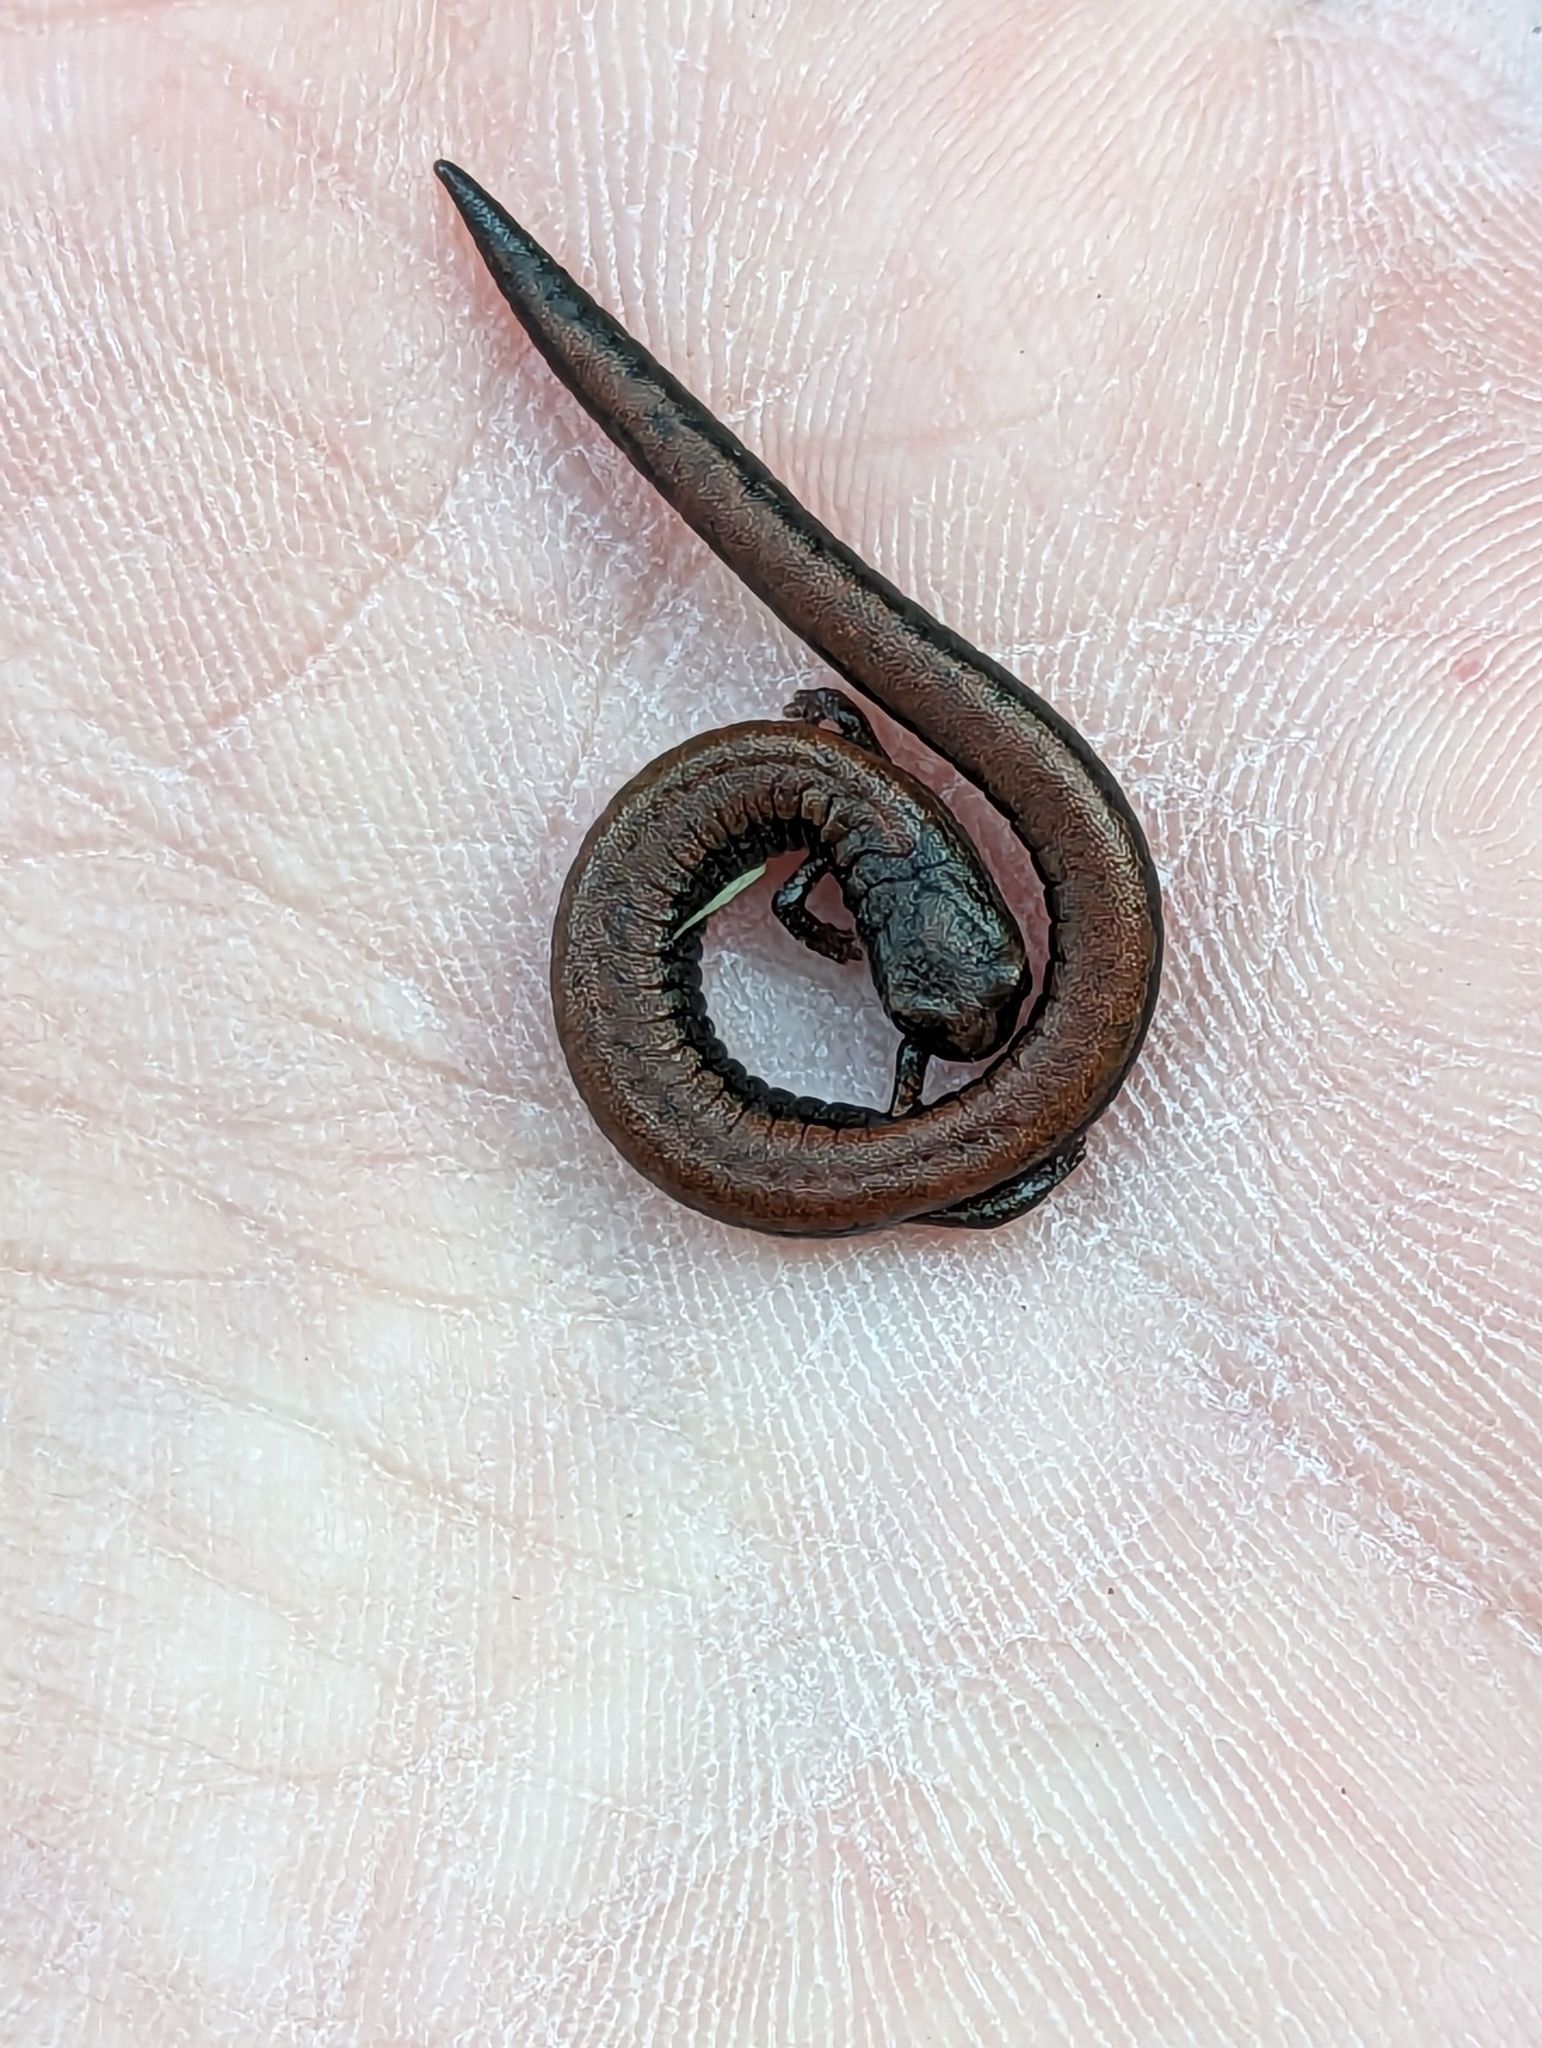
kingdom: Animalia
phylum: Chordata
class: Amphibia
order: Caudata
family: Plethodontidae
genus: Batrachoseps
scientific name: Batrachoseps nigriventris
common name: Black-bellied slender salamander
